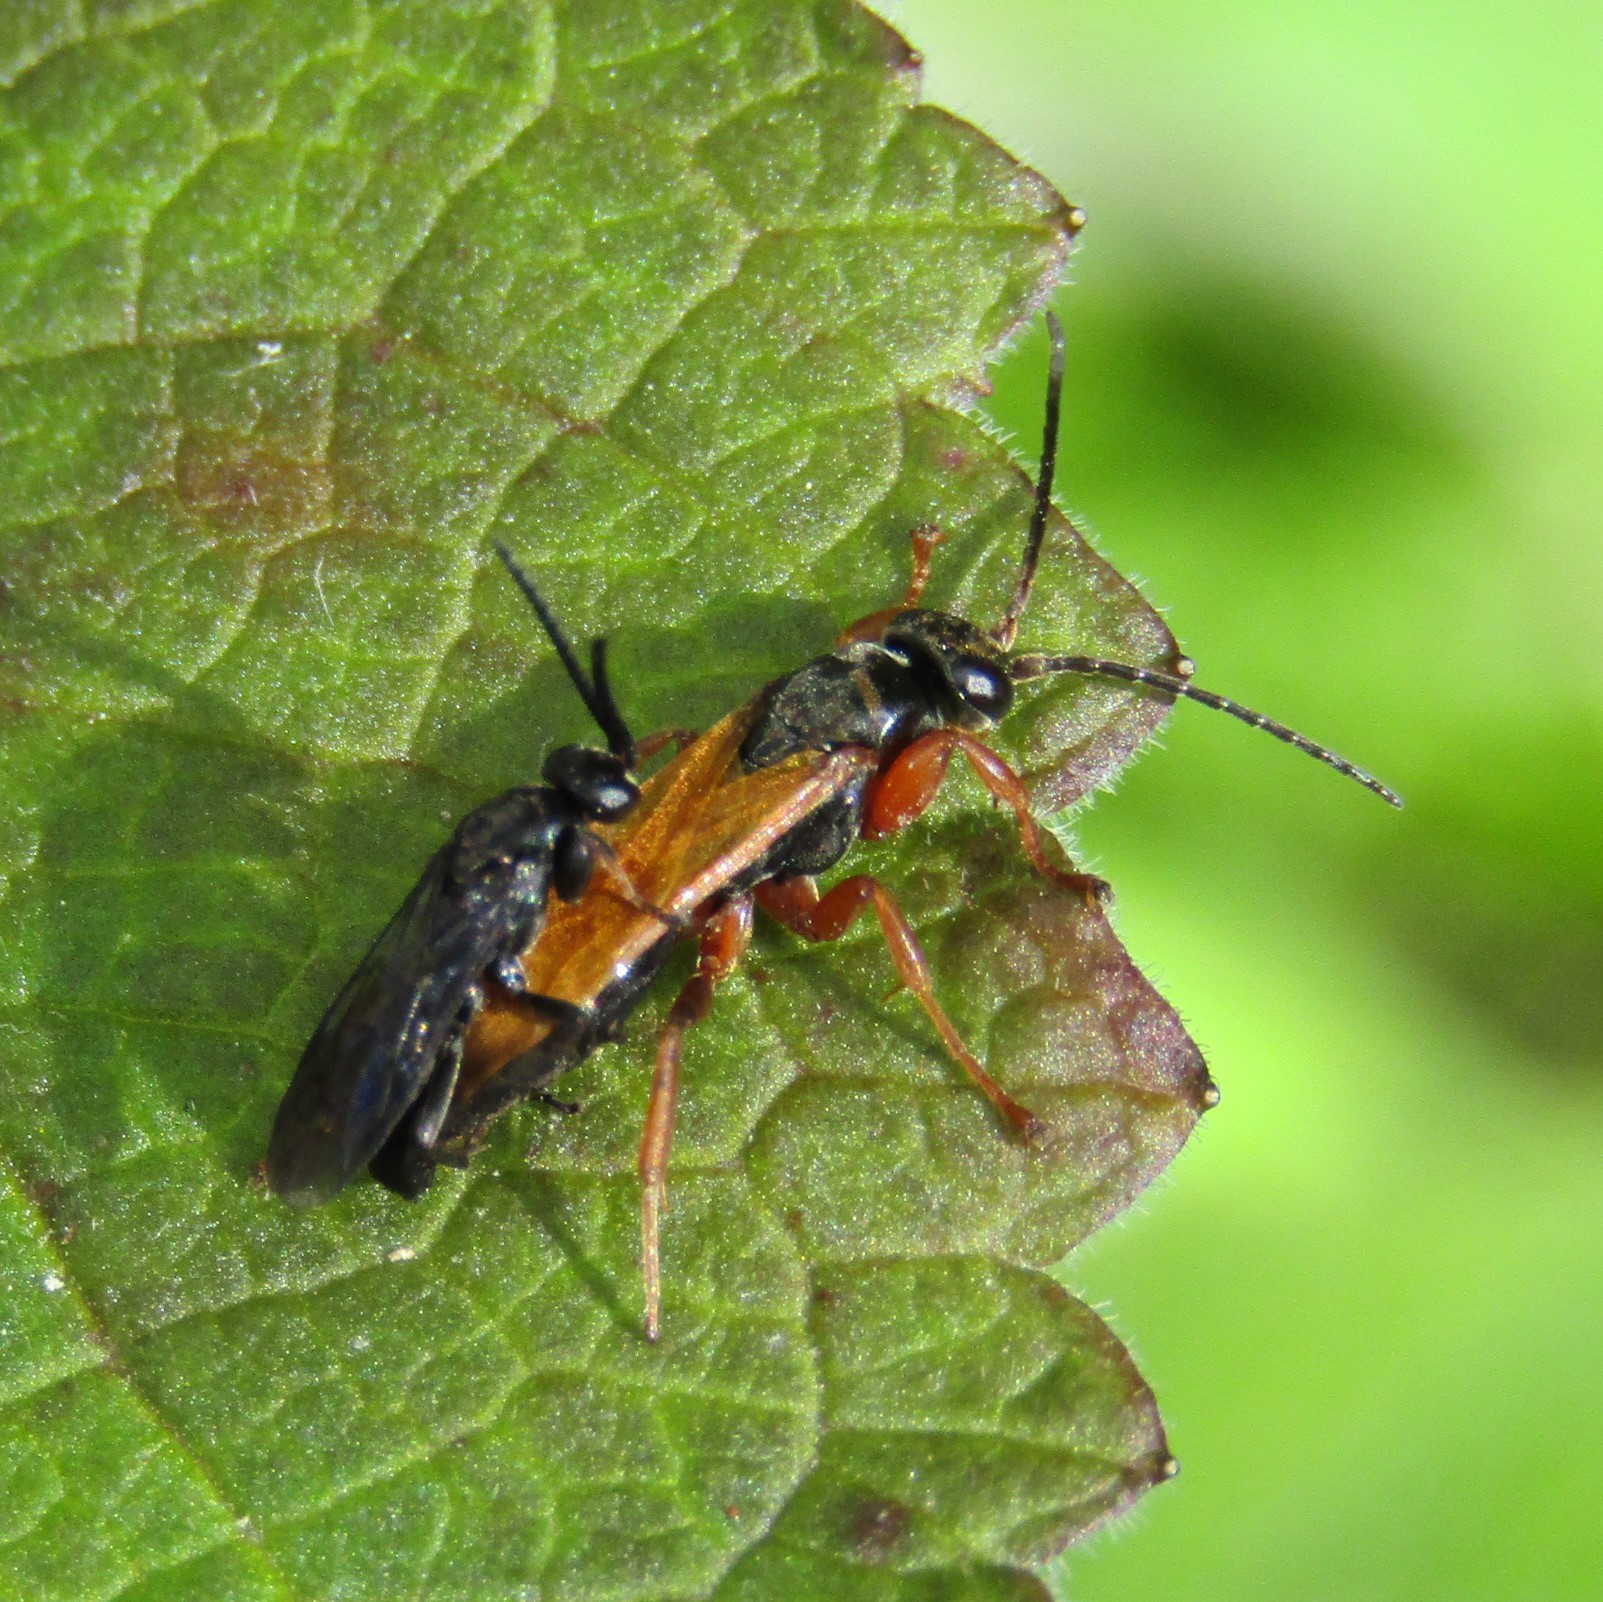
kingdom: Animalia
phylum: Arthropoda
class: Insecta
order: Hymenoptera
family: Pompilidae
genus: Epipompilus
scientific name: Epipompilus insularis
